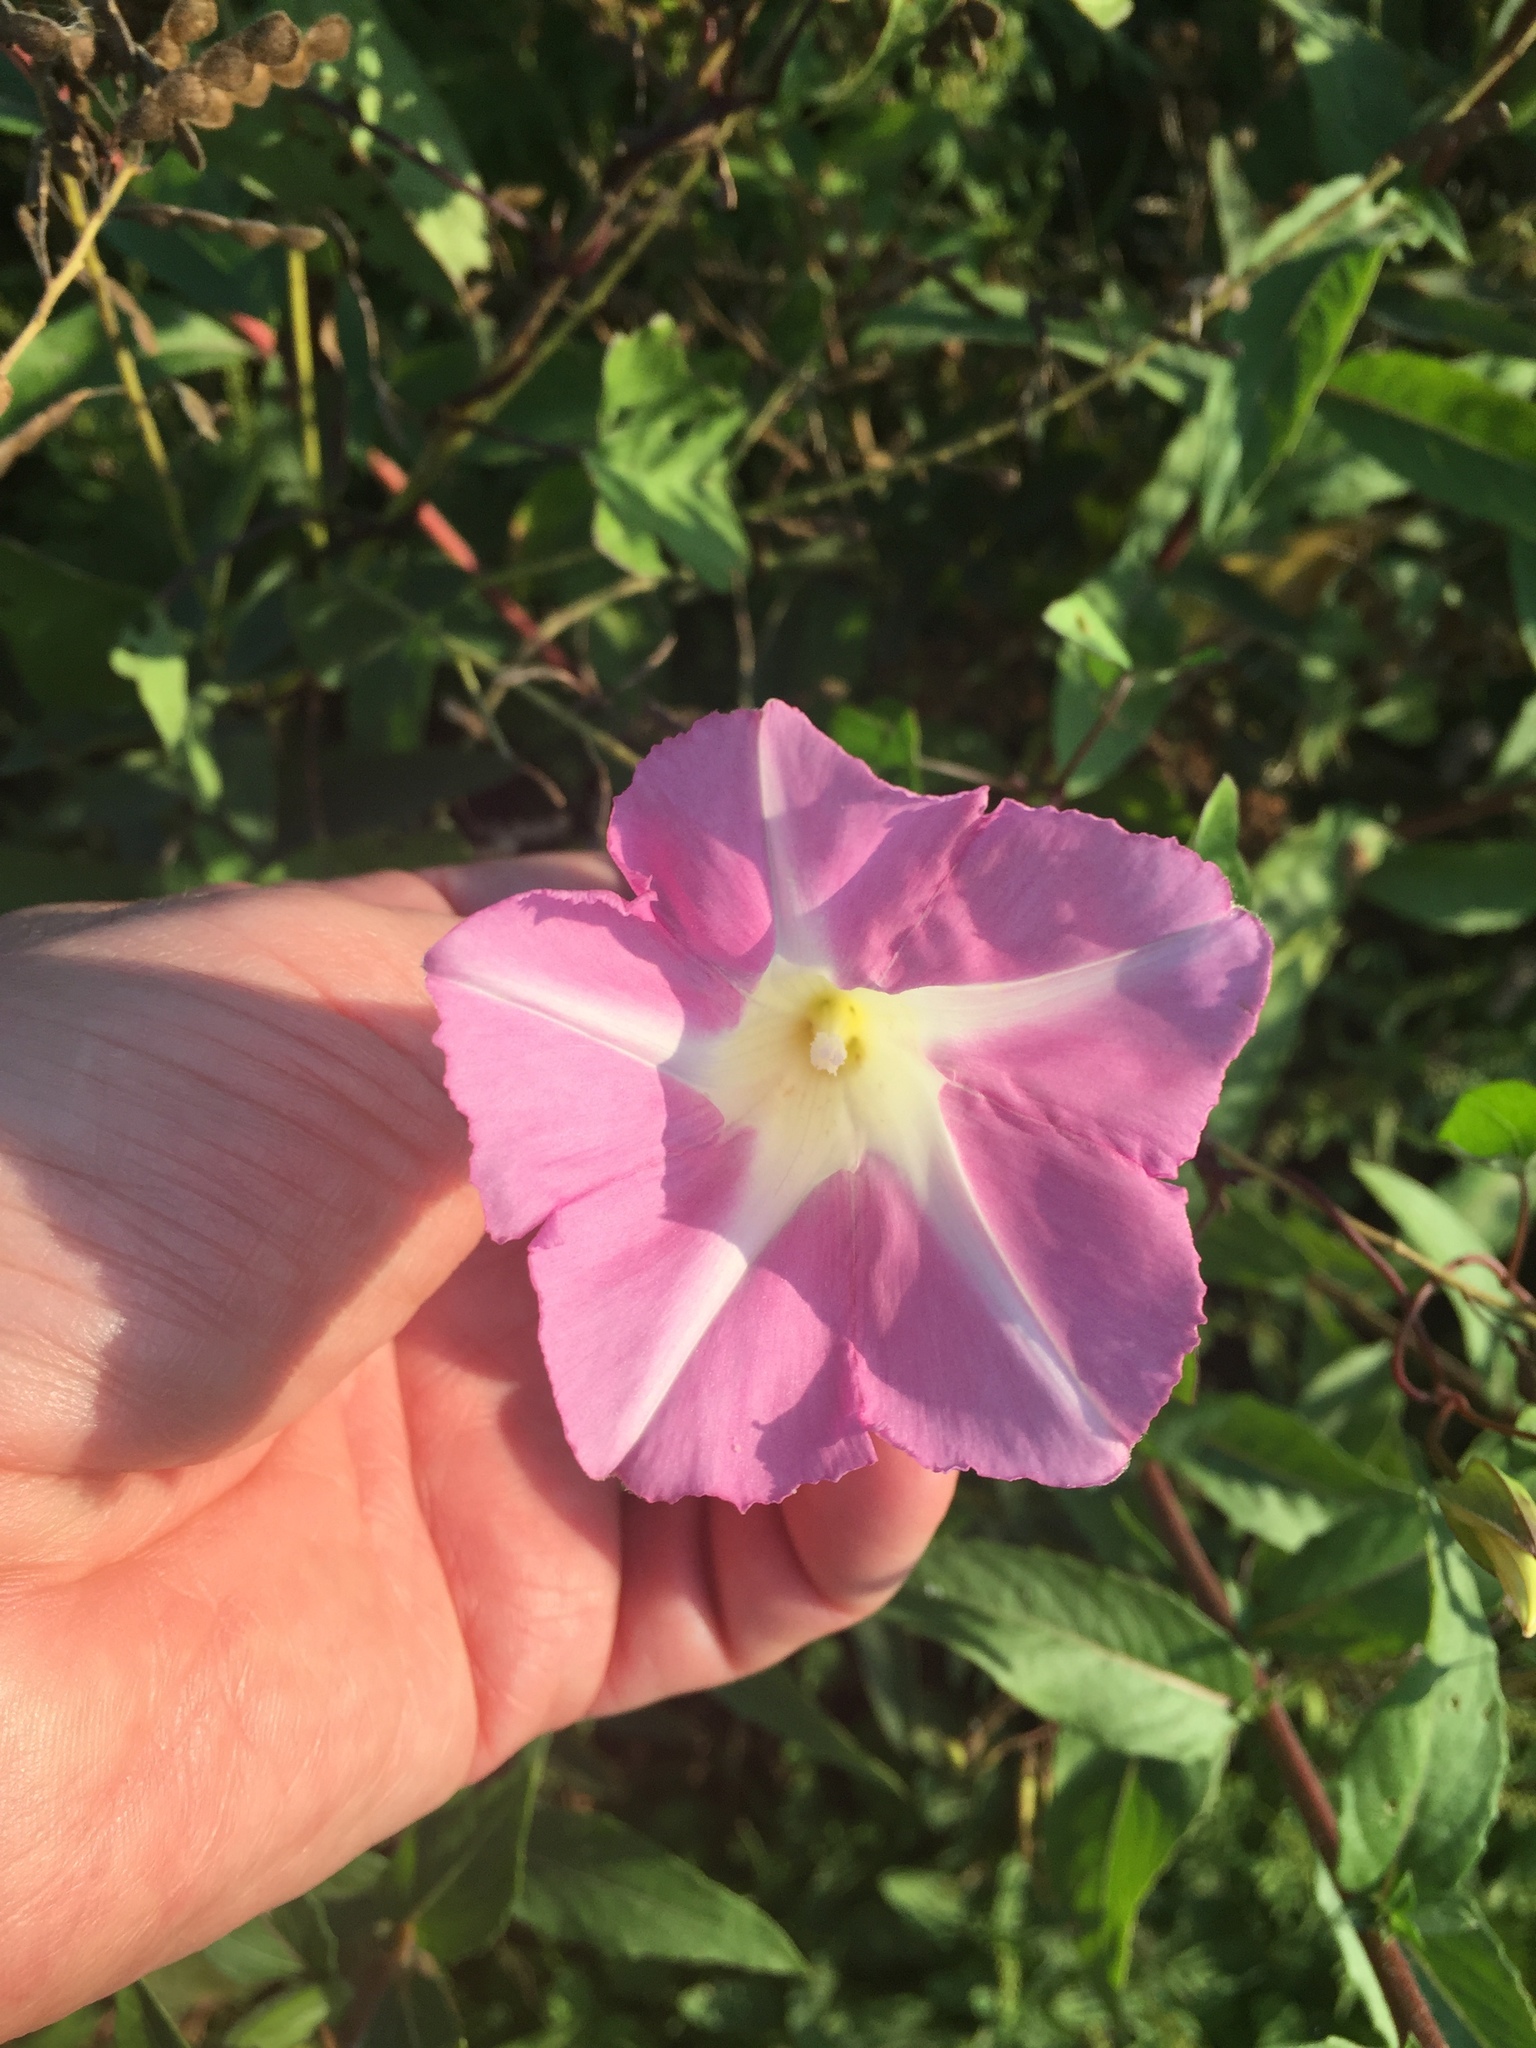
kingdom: Plantae
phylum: Tracheophyta
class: Magnoliopsida
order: Solanales
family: Convolvulaceae
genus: Calystegia
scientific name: Calystegia sepium
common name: Hedge bindweed
